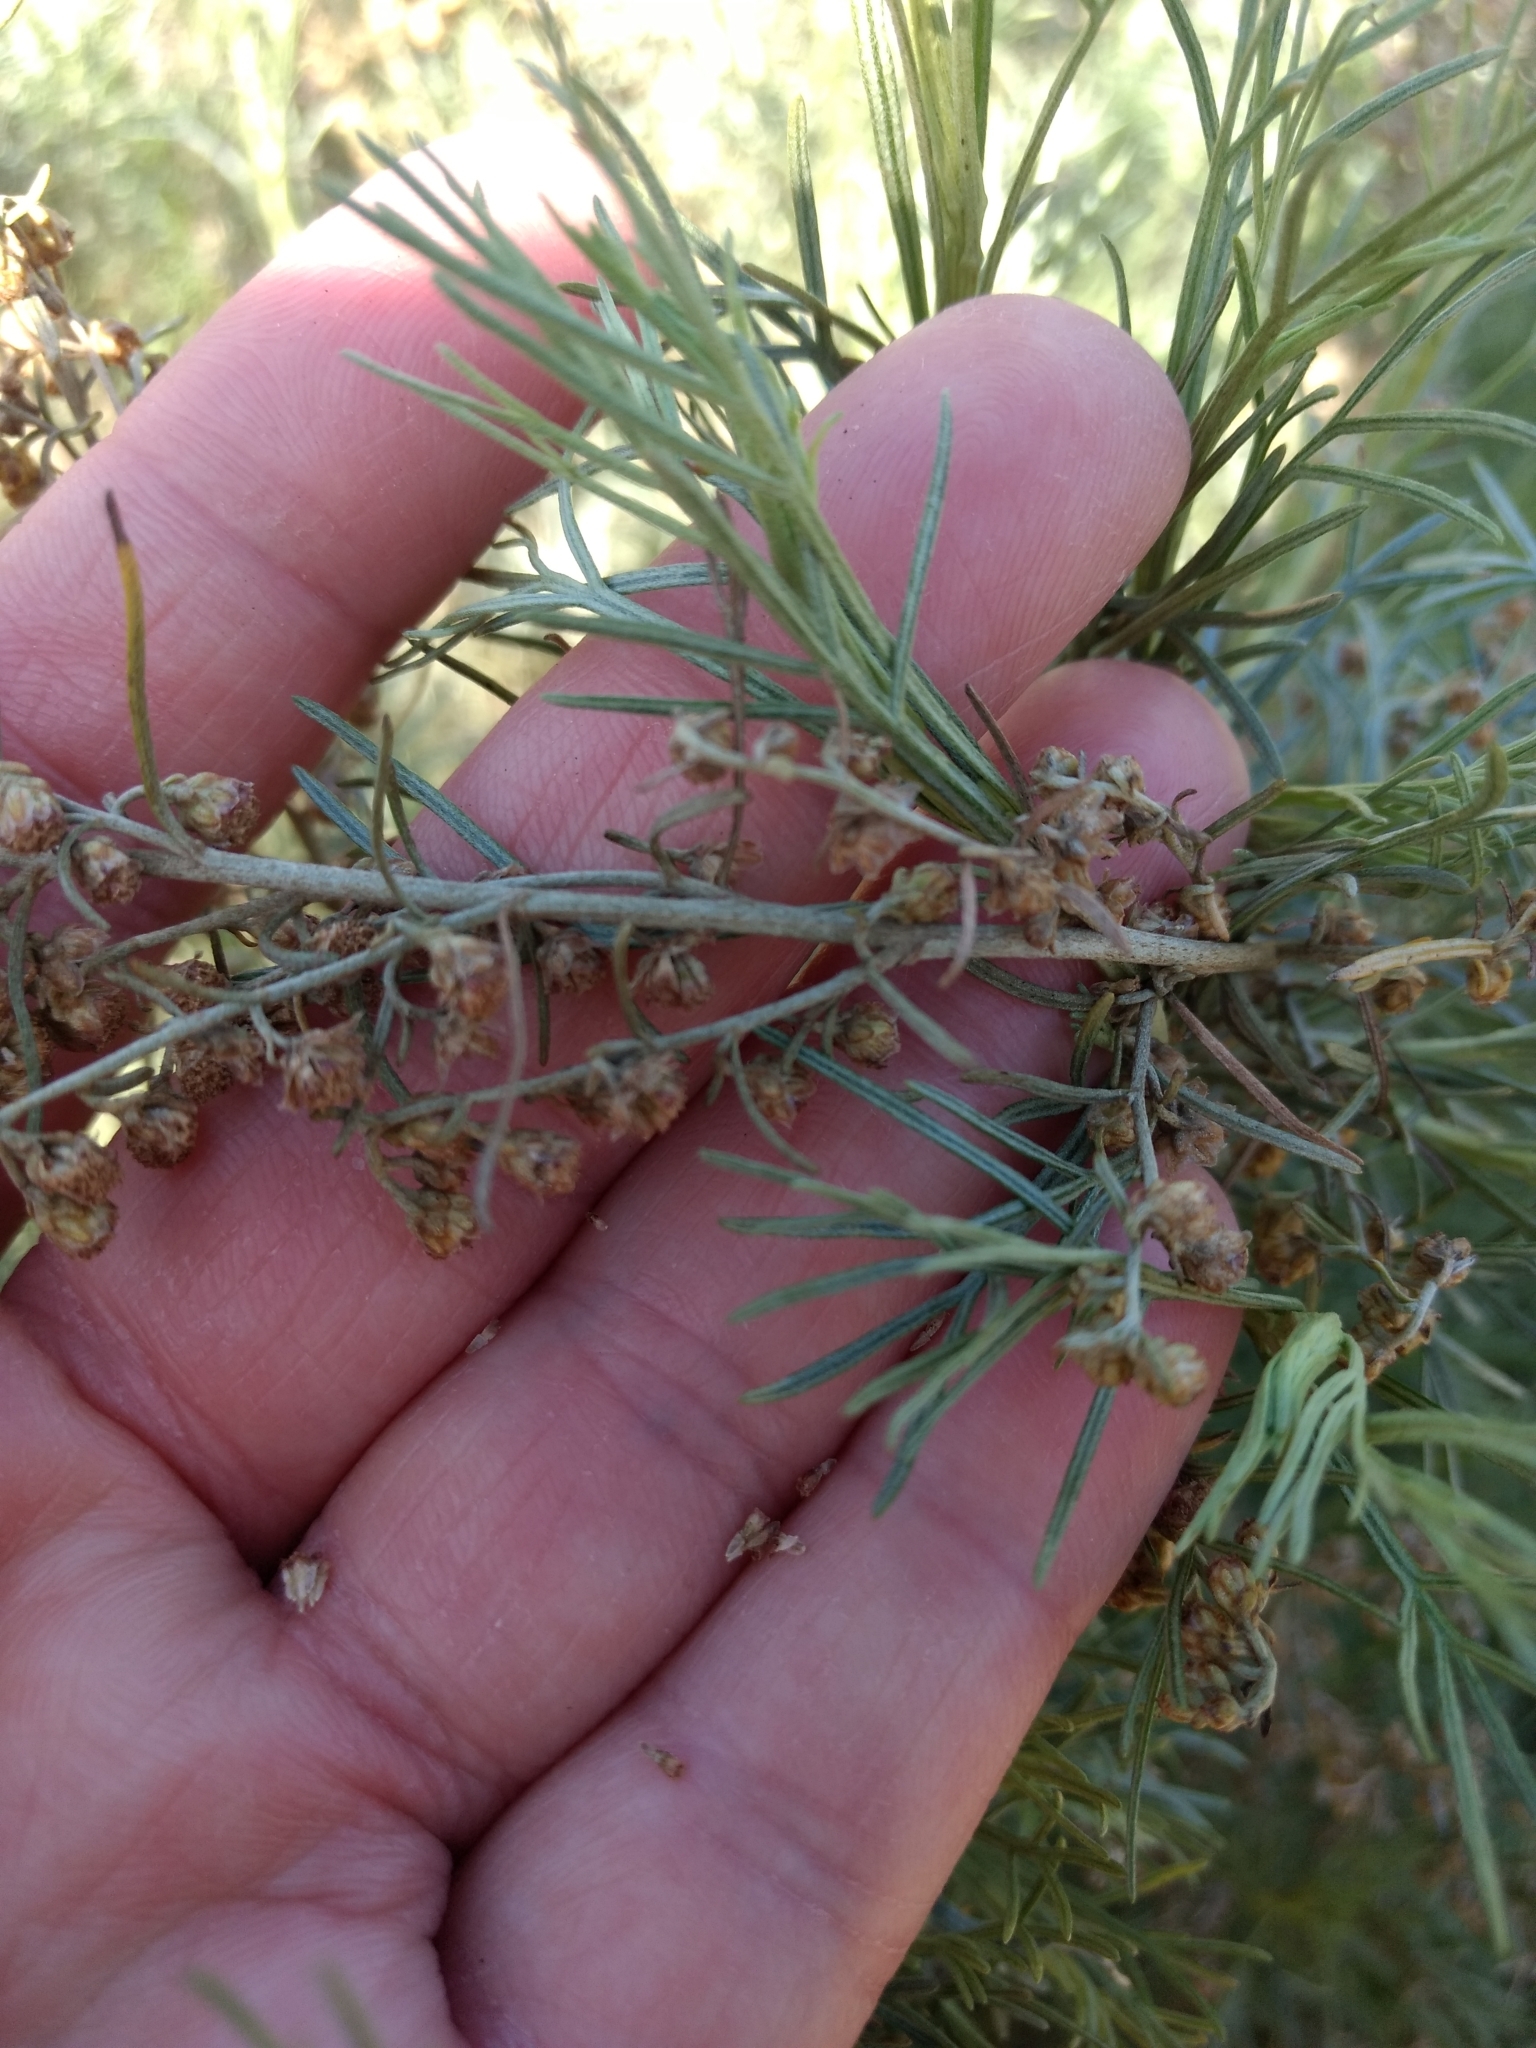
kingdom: Plantae
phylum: Tracheophyta
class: Magnoliopsida
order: Asterales
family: Asteraceae
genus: Artemisia
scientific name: Artemisia californica
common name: California sagebrush
